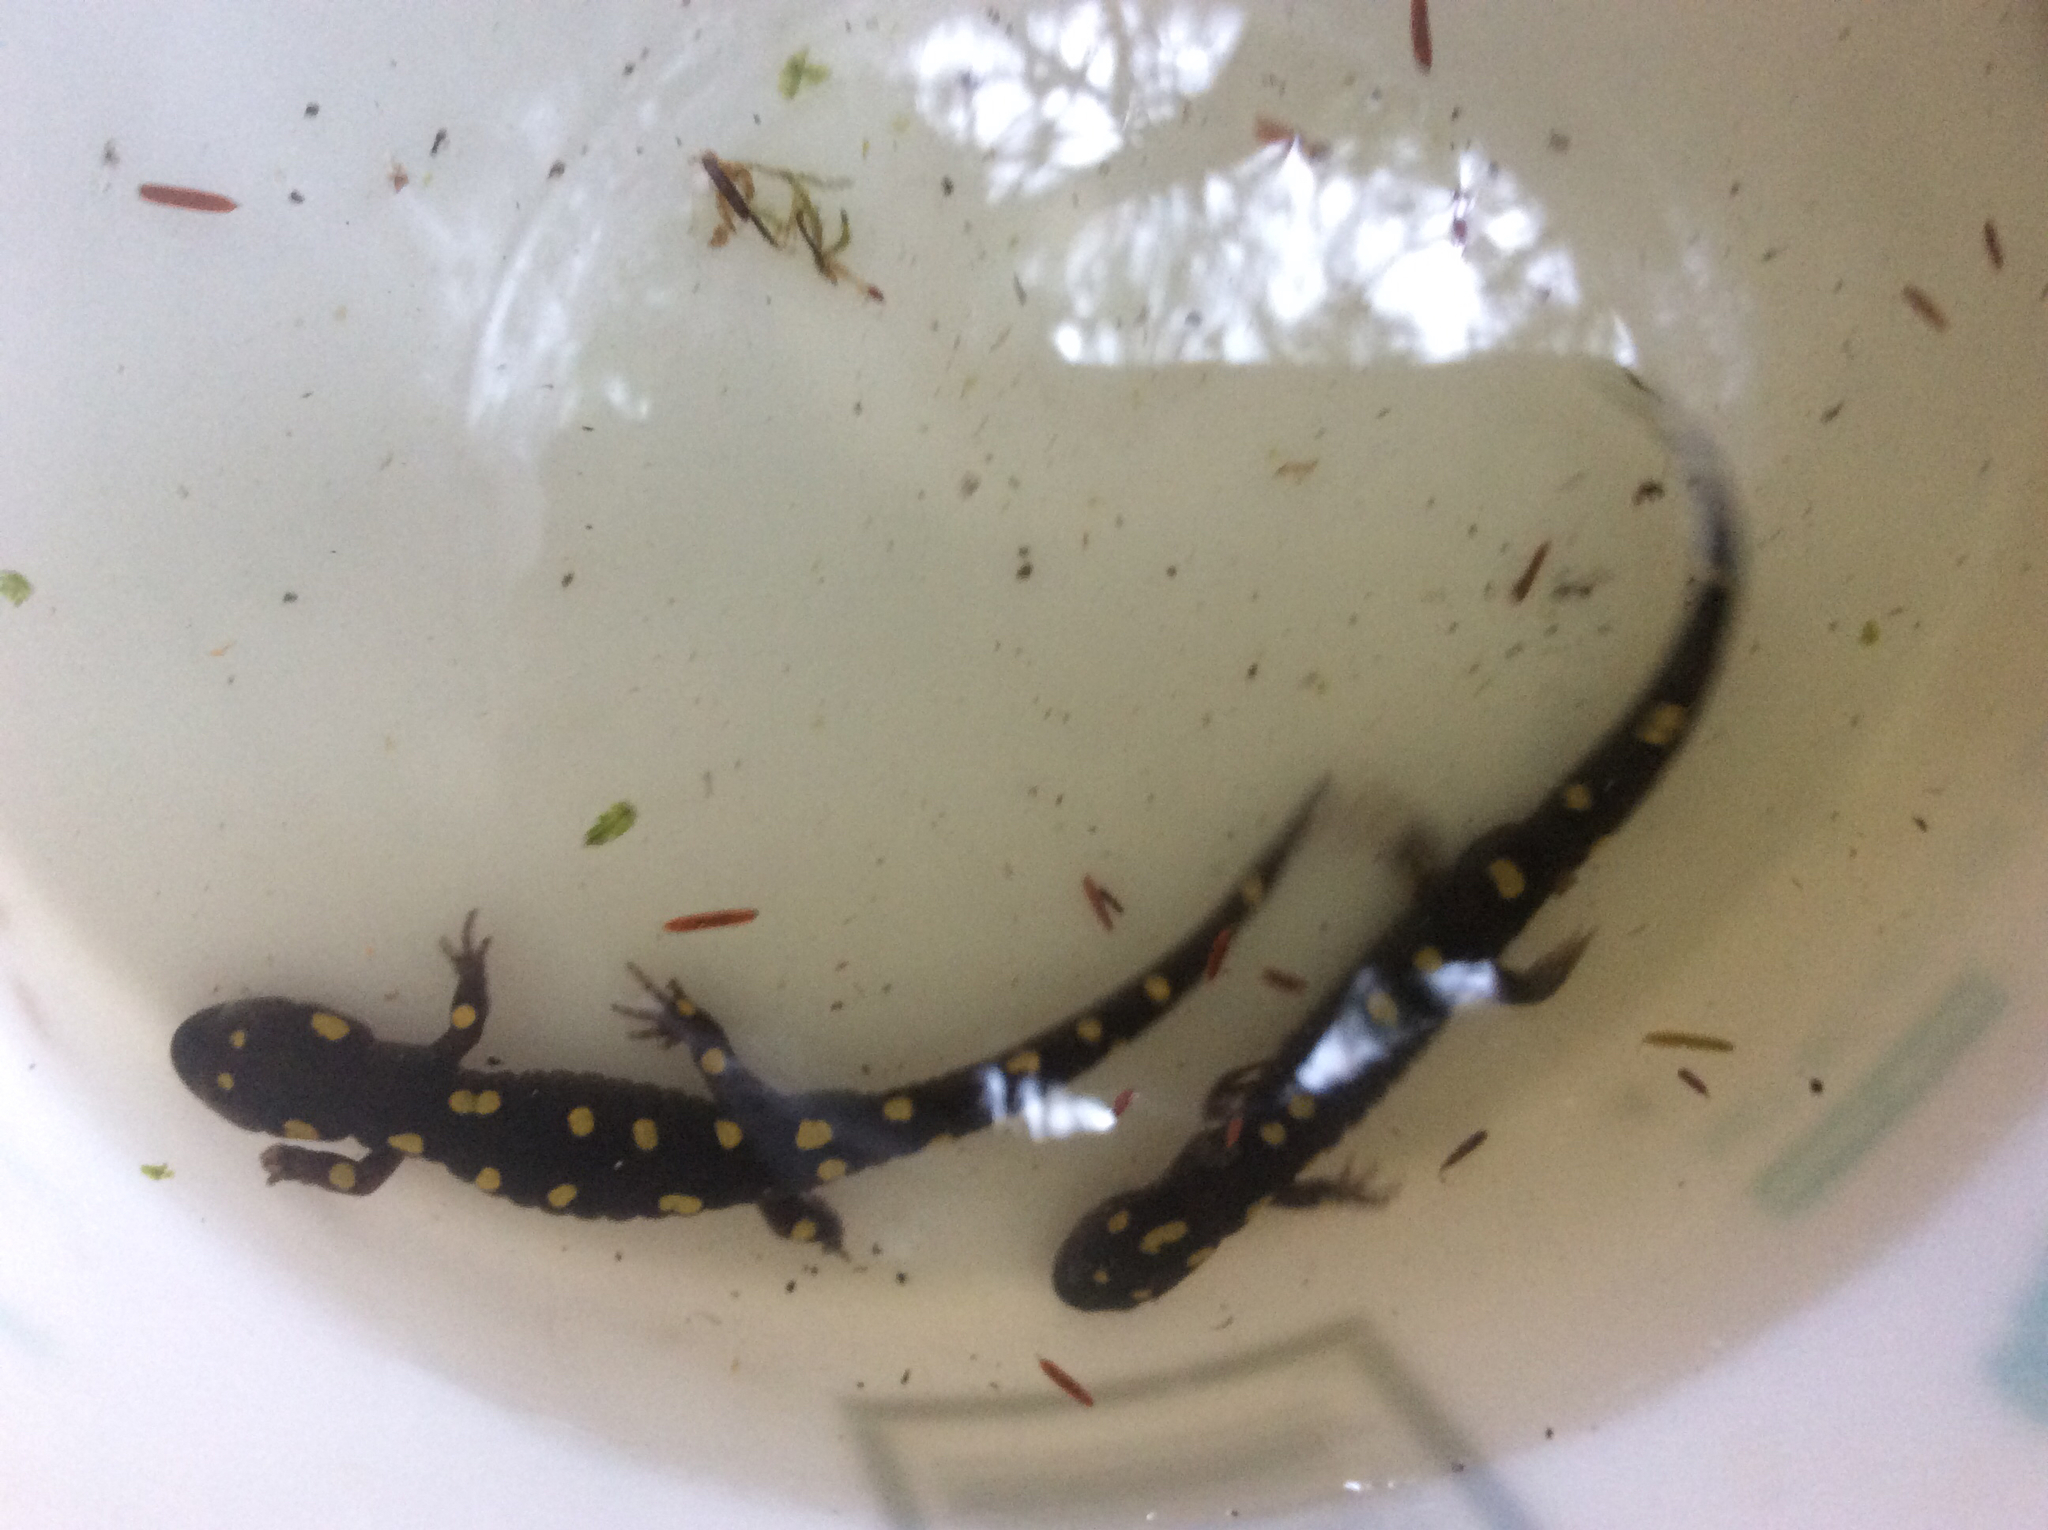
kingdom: Animalia
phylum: Chordata
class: Amphibia
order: Caudata
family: Ambystomatidae
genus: Ambystoma
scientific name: Ambystoma maculatum
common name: Spotted salamander
